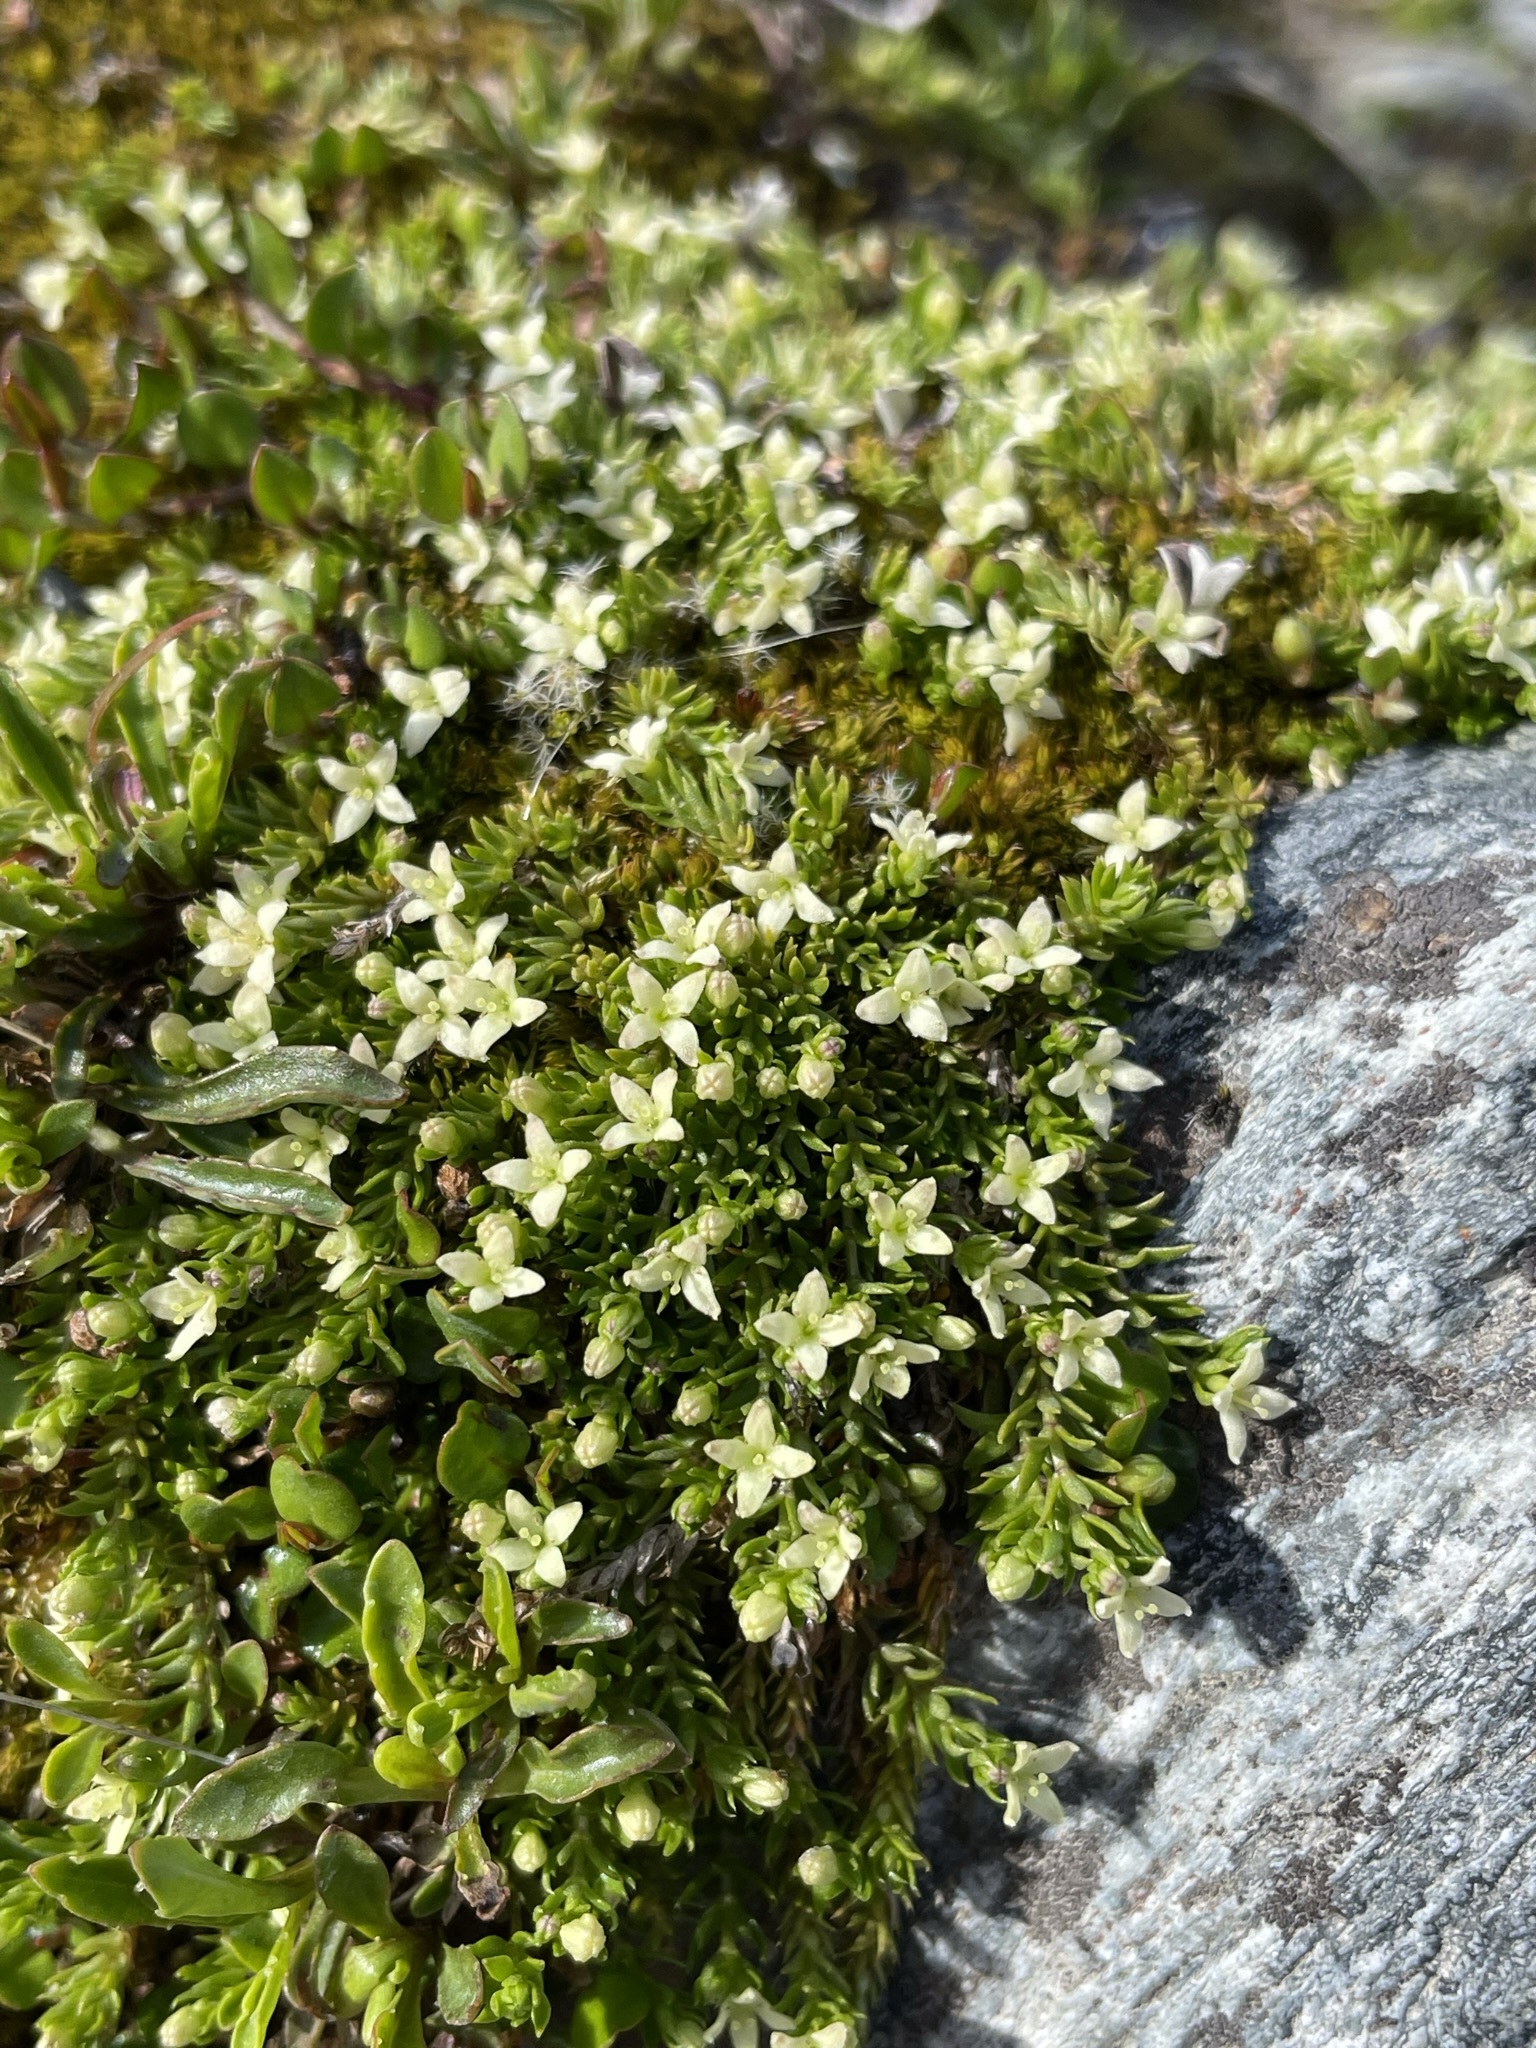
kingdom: Plantae
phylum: Tracheophyta
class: Magnoliopsida
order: Gentianales
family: Rubiaceae
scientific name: Rubiaceae
